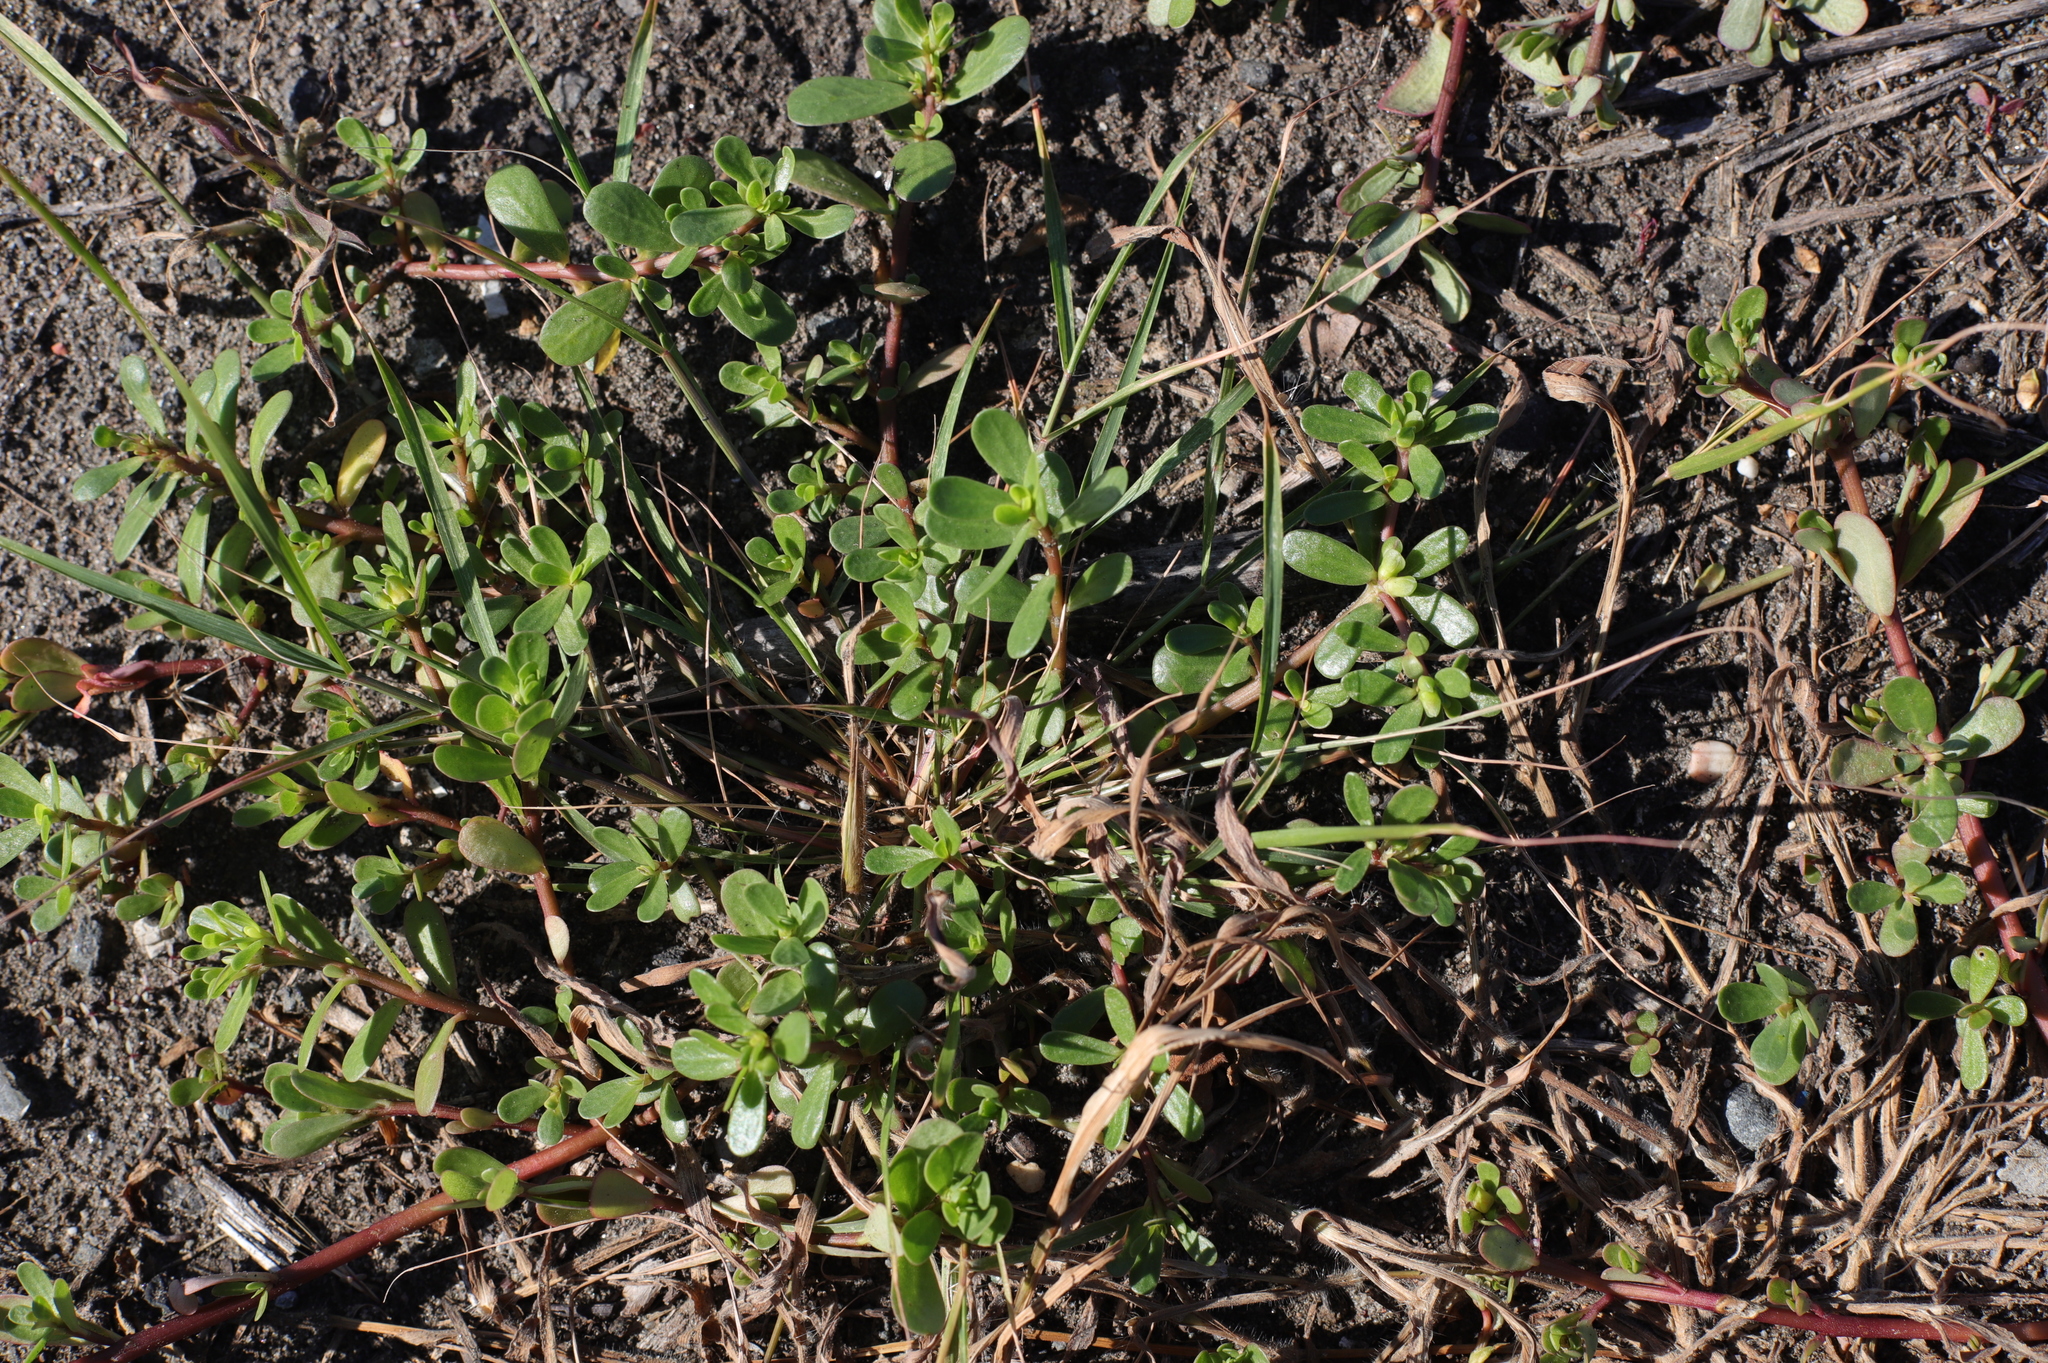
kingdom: Plantae
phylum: Tracheophyta
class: Magnoliopsida
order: Caryophyllales
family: Portulacaceae
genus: Portulaca
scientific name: Portulaca oleracea
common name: Common purslane
